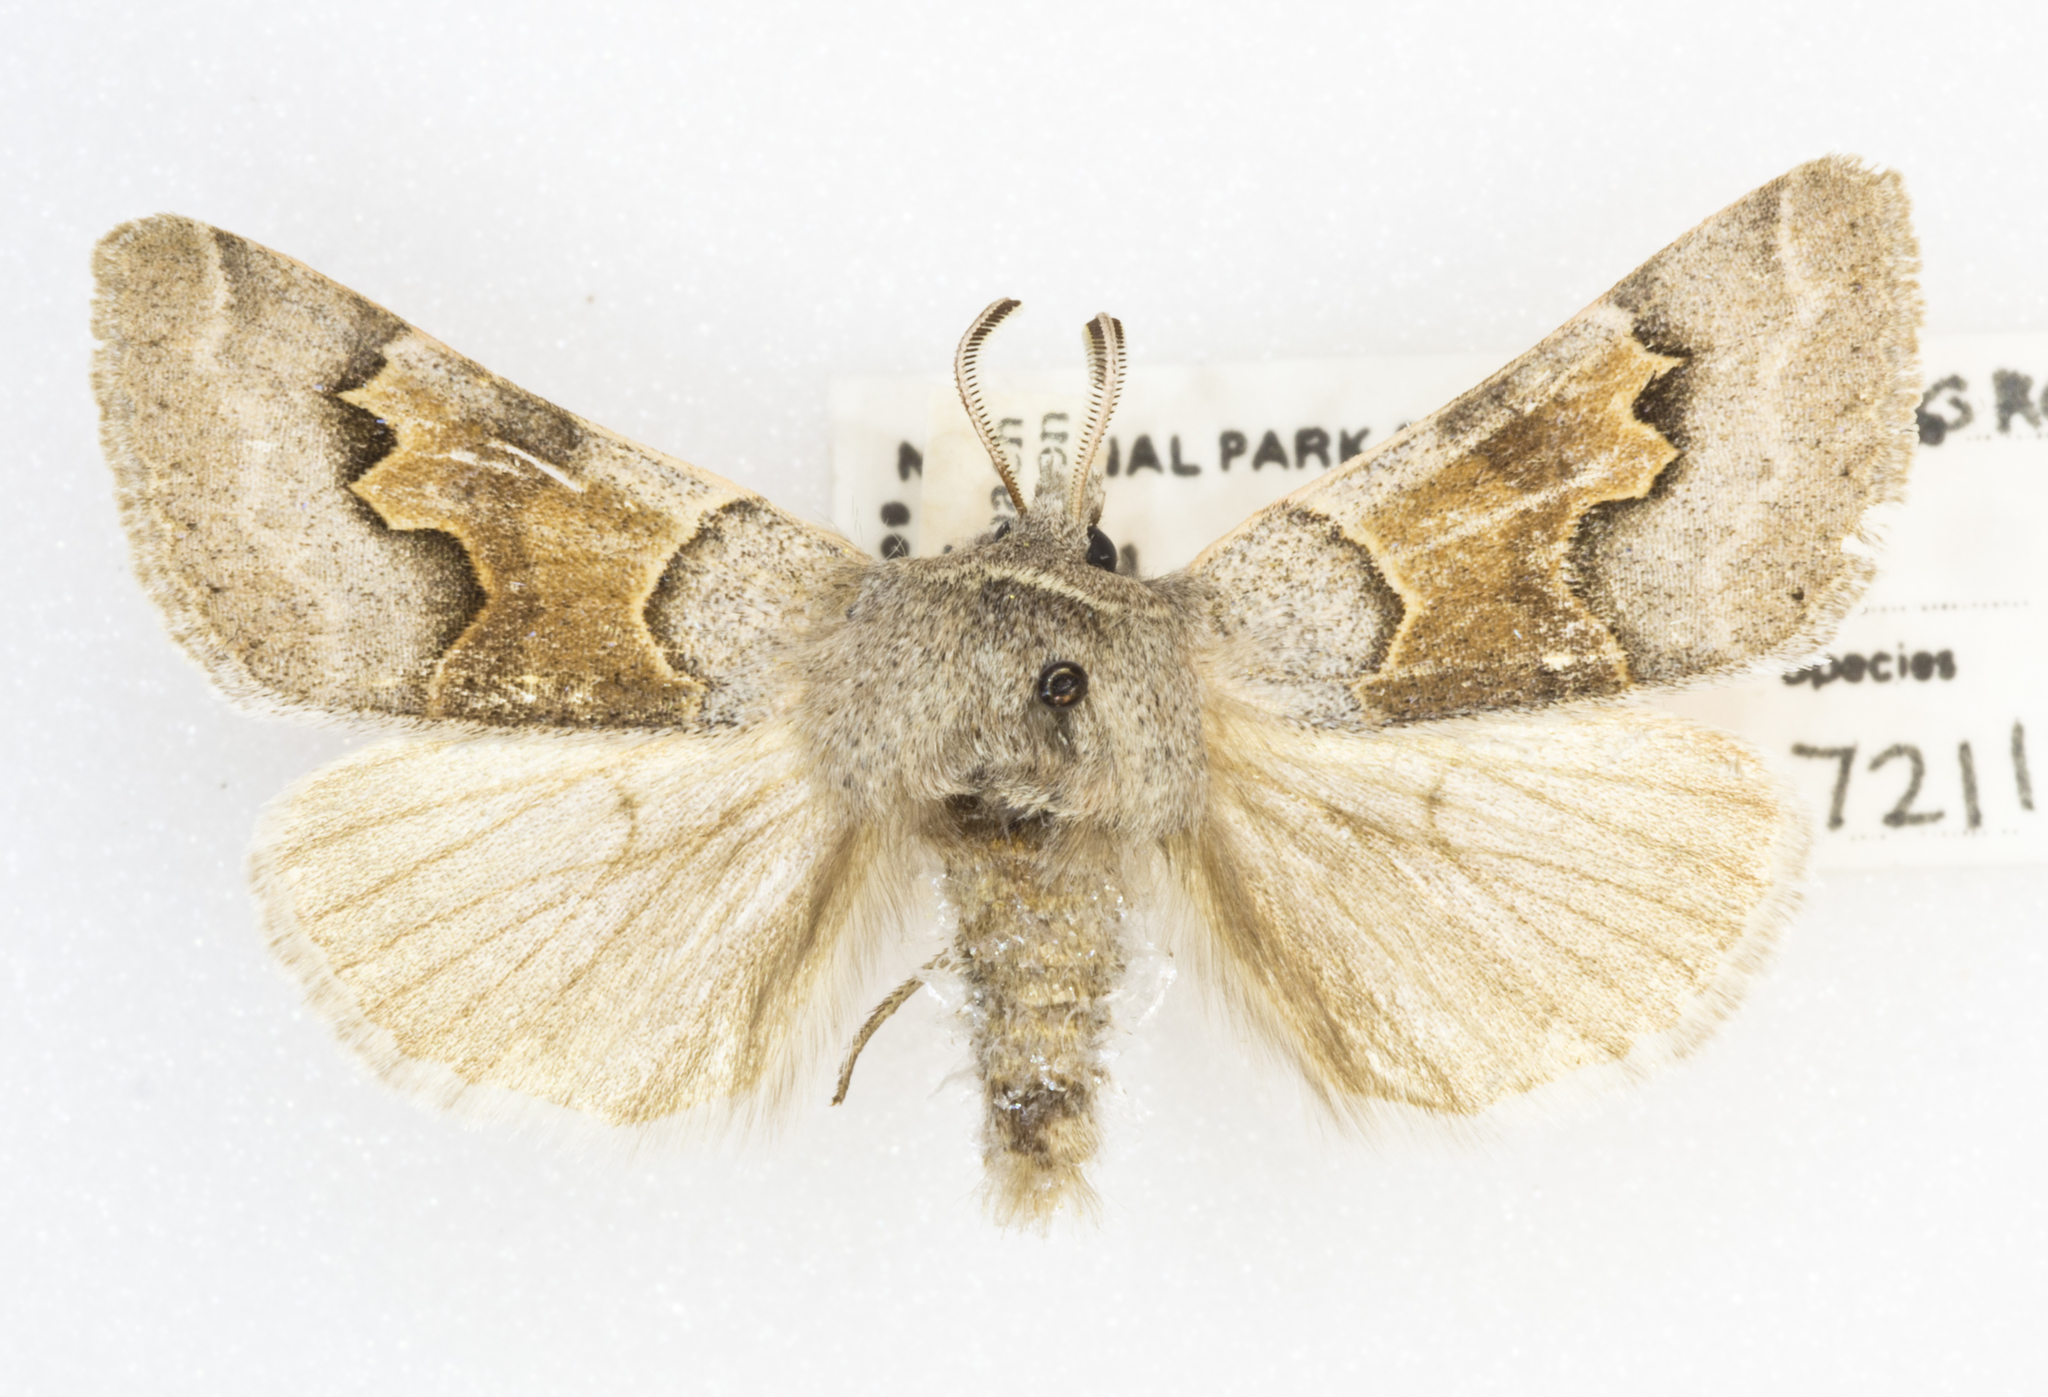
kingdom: Animalia
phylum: Arthropoda
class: Insecta
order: Lepidoptera
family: Erebidae
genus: Ulosyneda
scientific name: Ulosyneda valens
